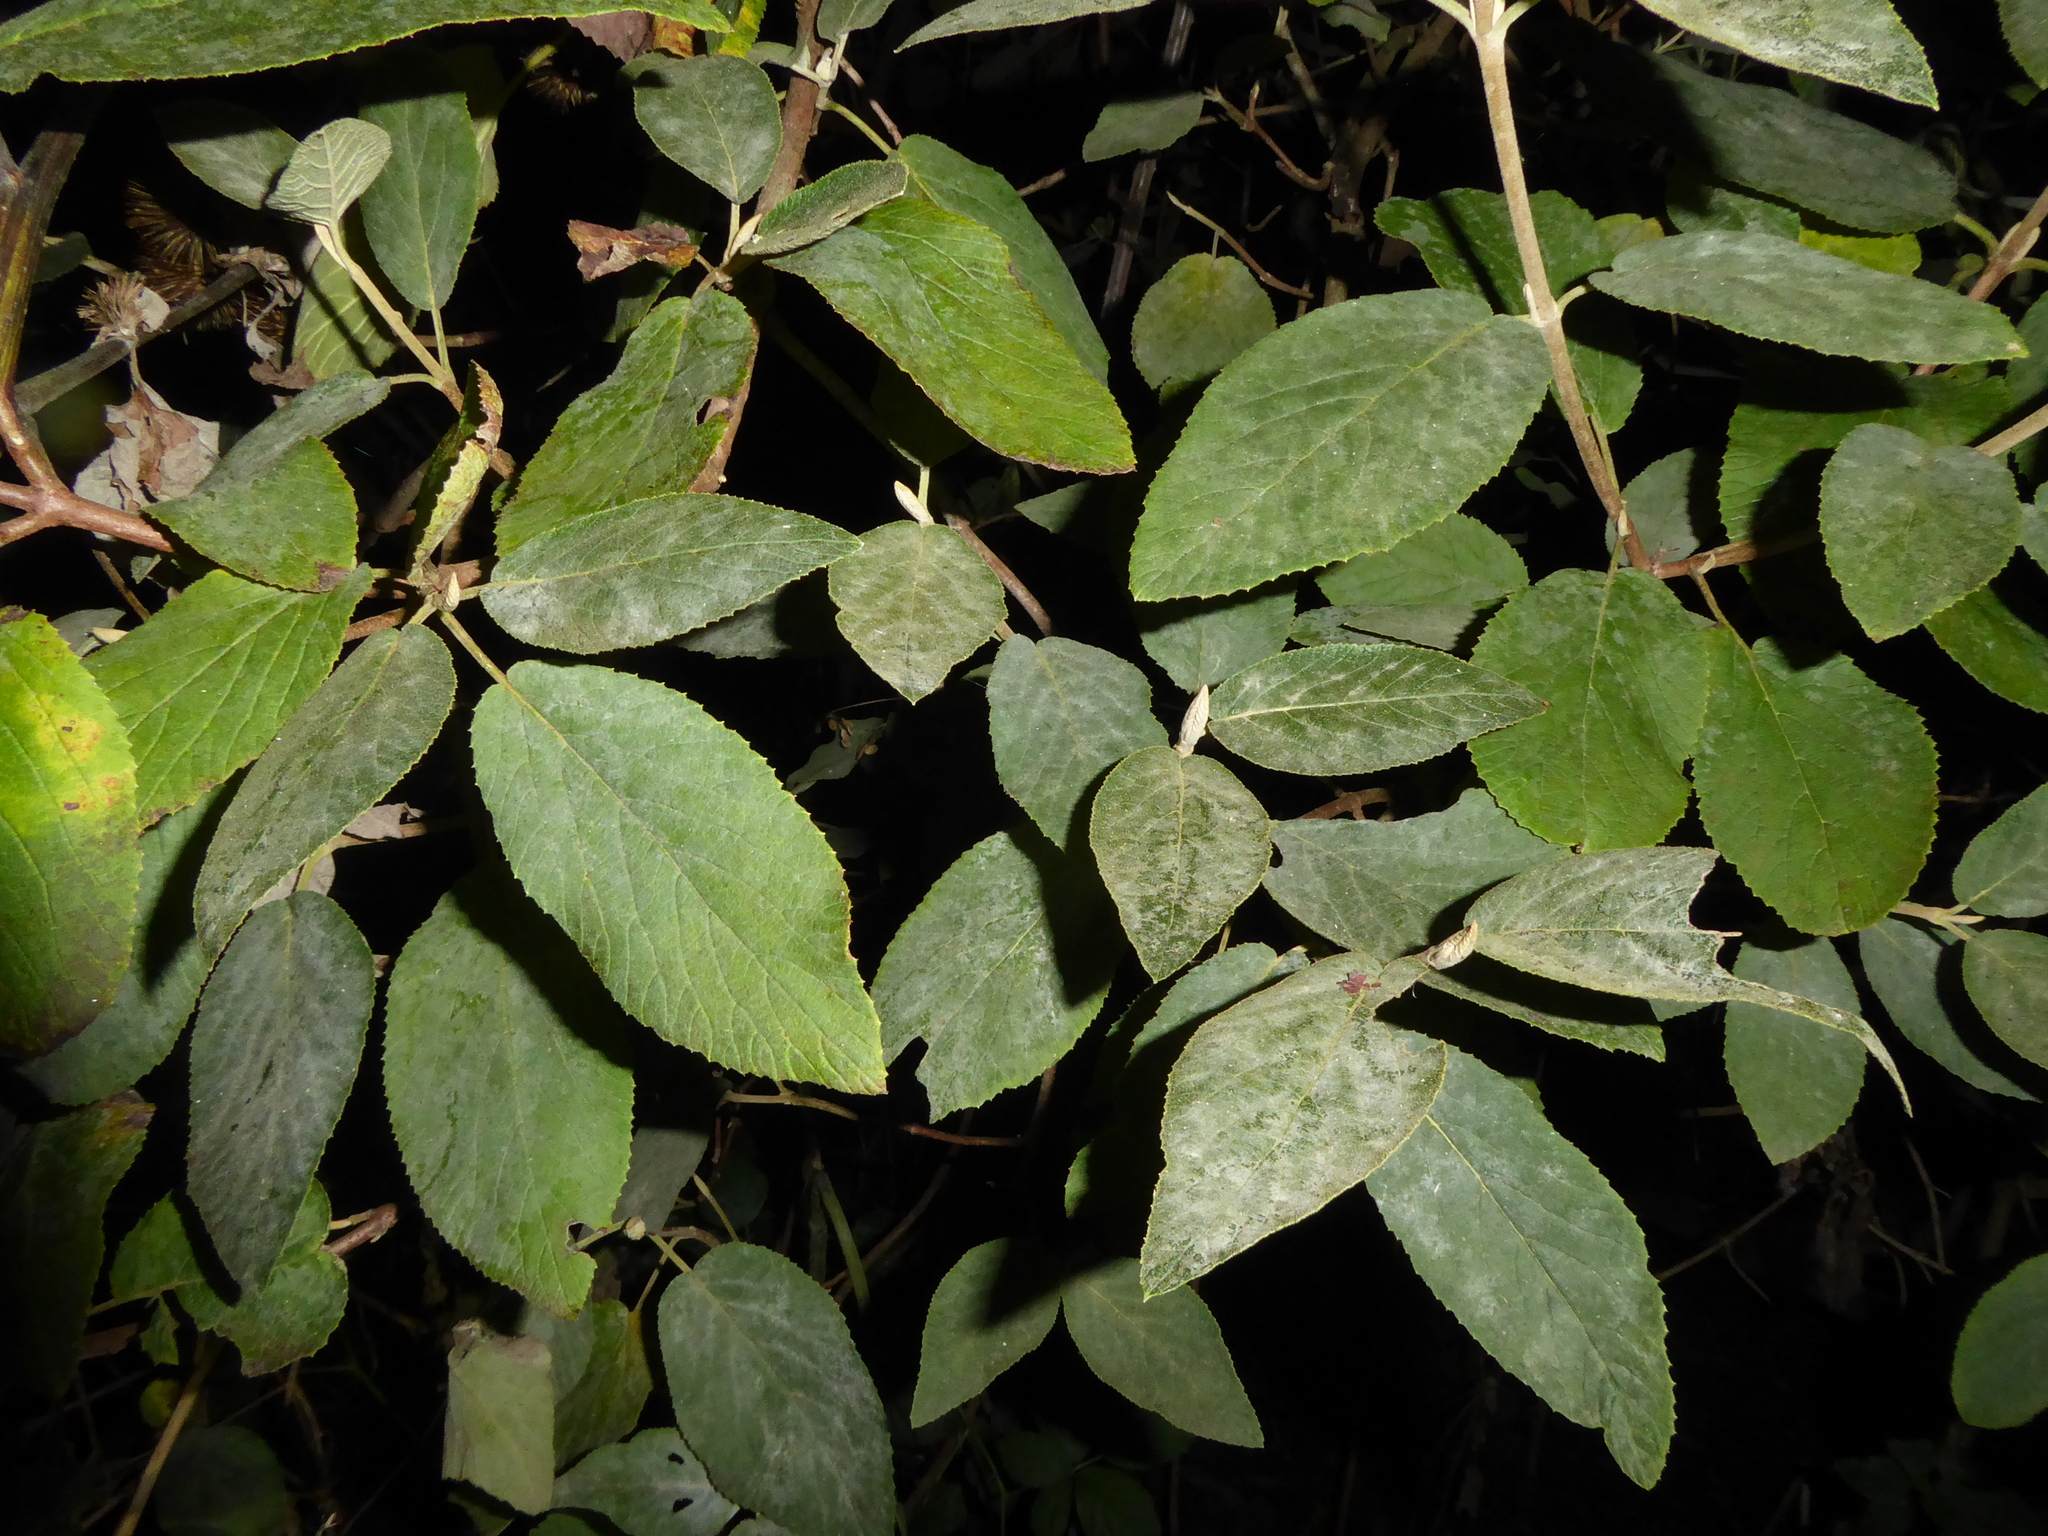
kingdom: Fungi
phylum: Ascomycota
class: Leotiomycetes
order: Helotiales
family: Erysiphaceae
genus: Erysiphe
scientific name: Erysiphe viburni
